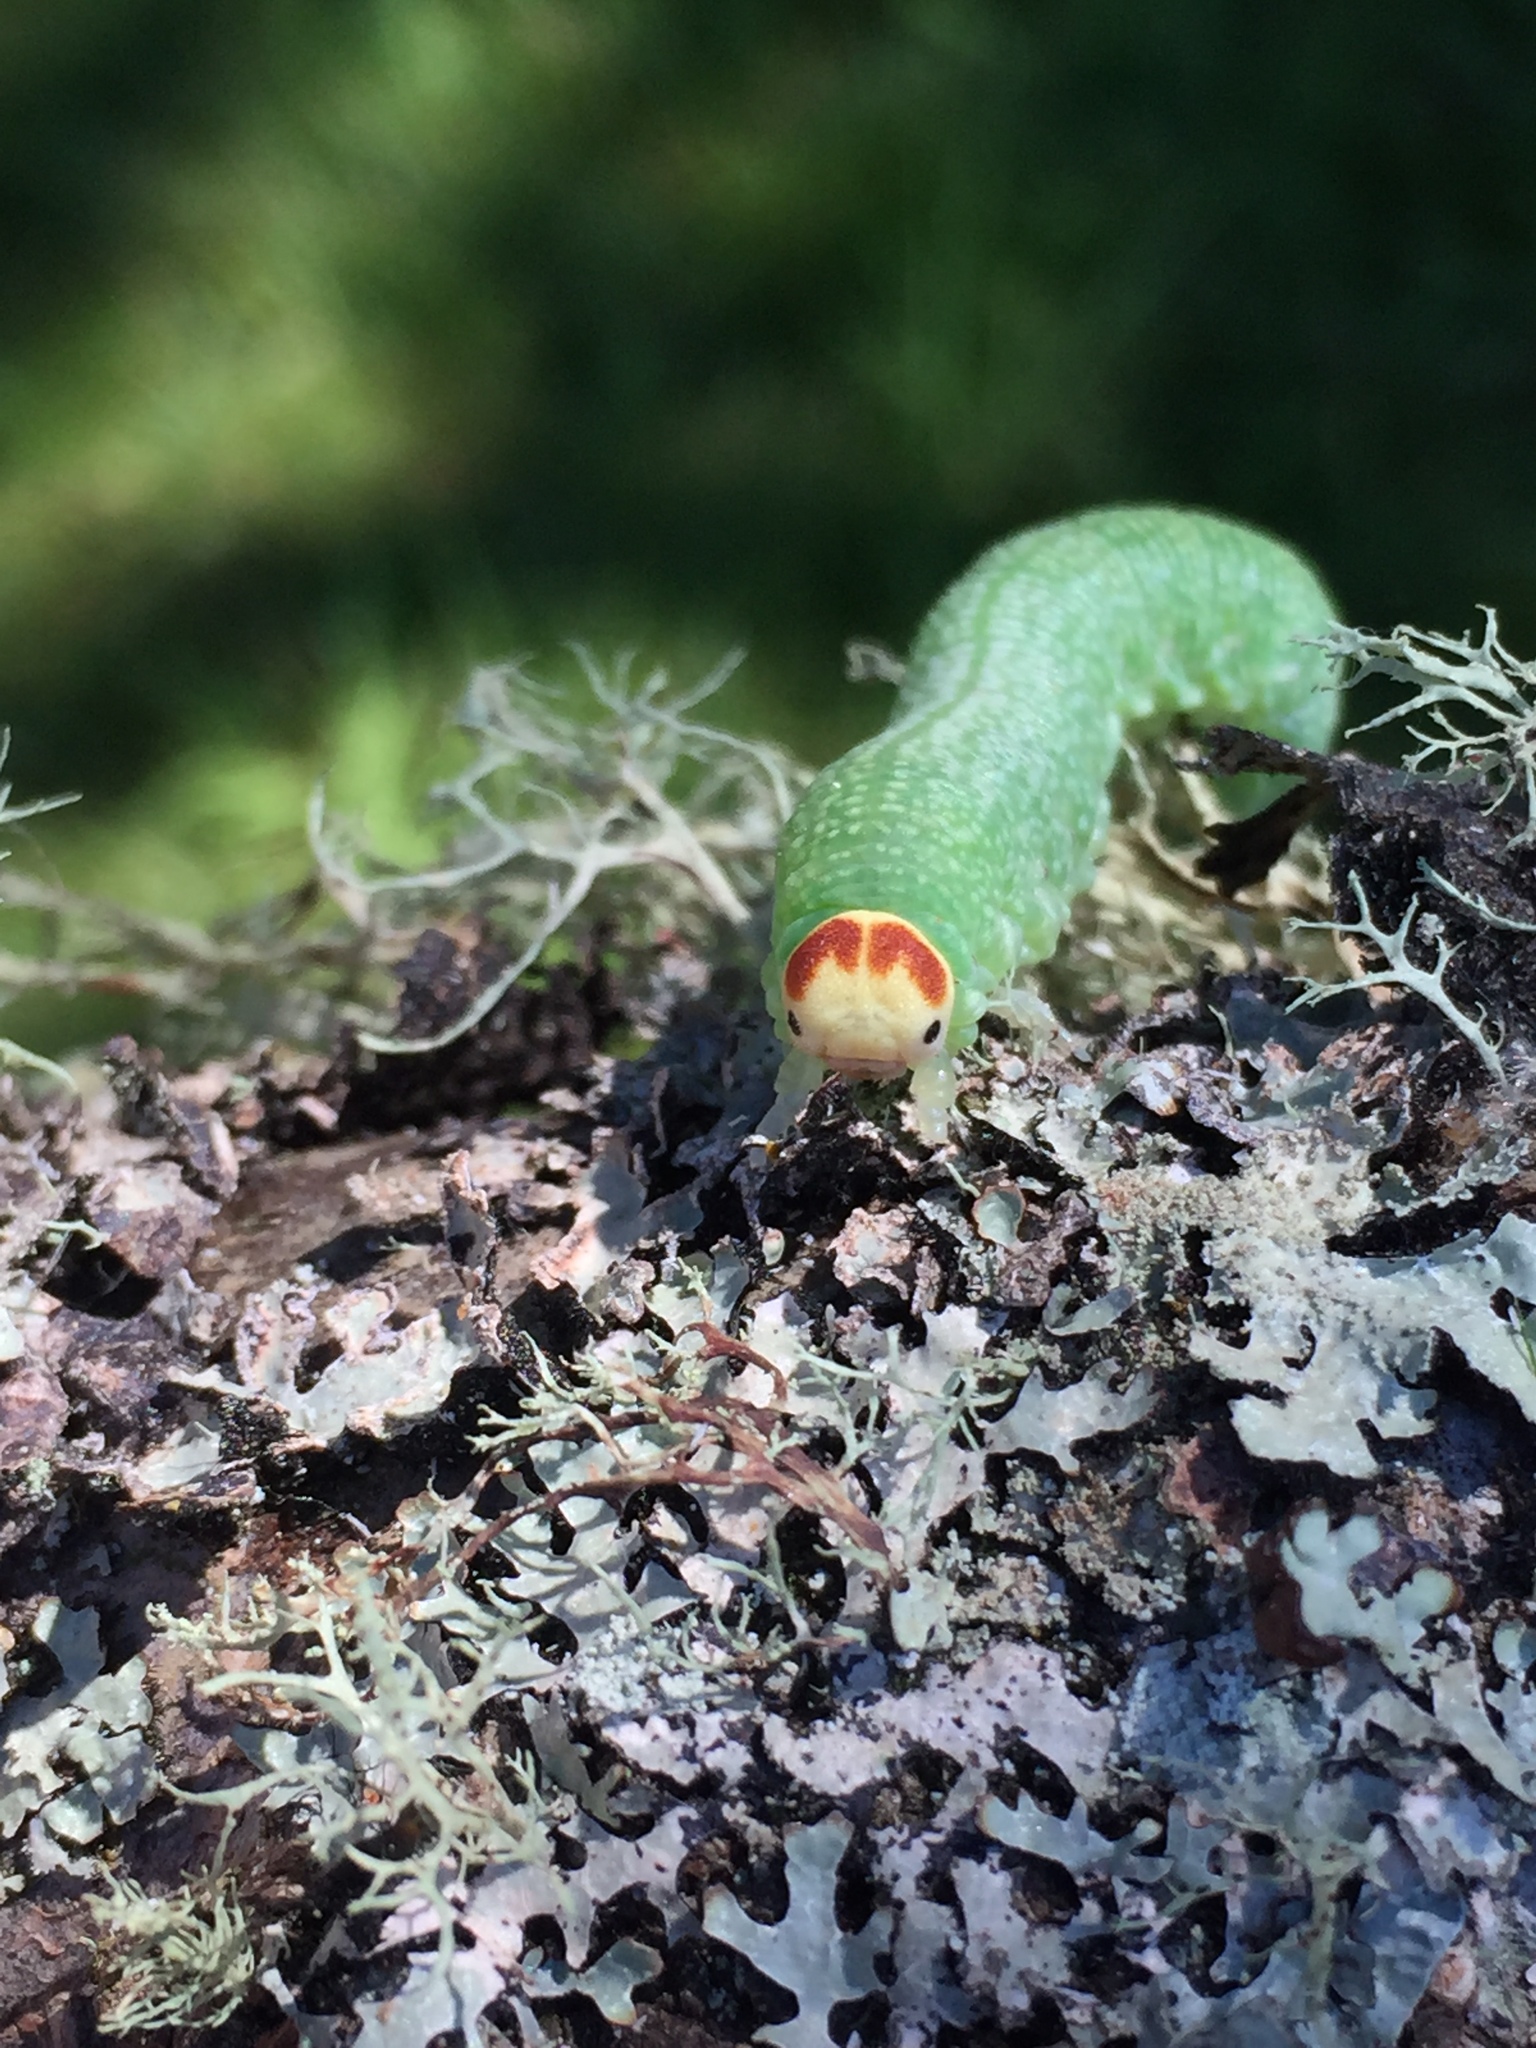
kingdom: Animalia
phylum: Arthropoda
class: Insecta
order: Hymenoptera
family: Cimbicidae
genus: Trichiosoma
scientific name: Trichiosoma triangulum
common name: Giant birch sawfly
